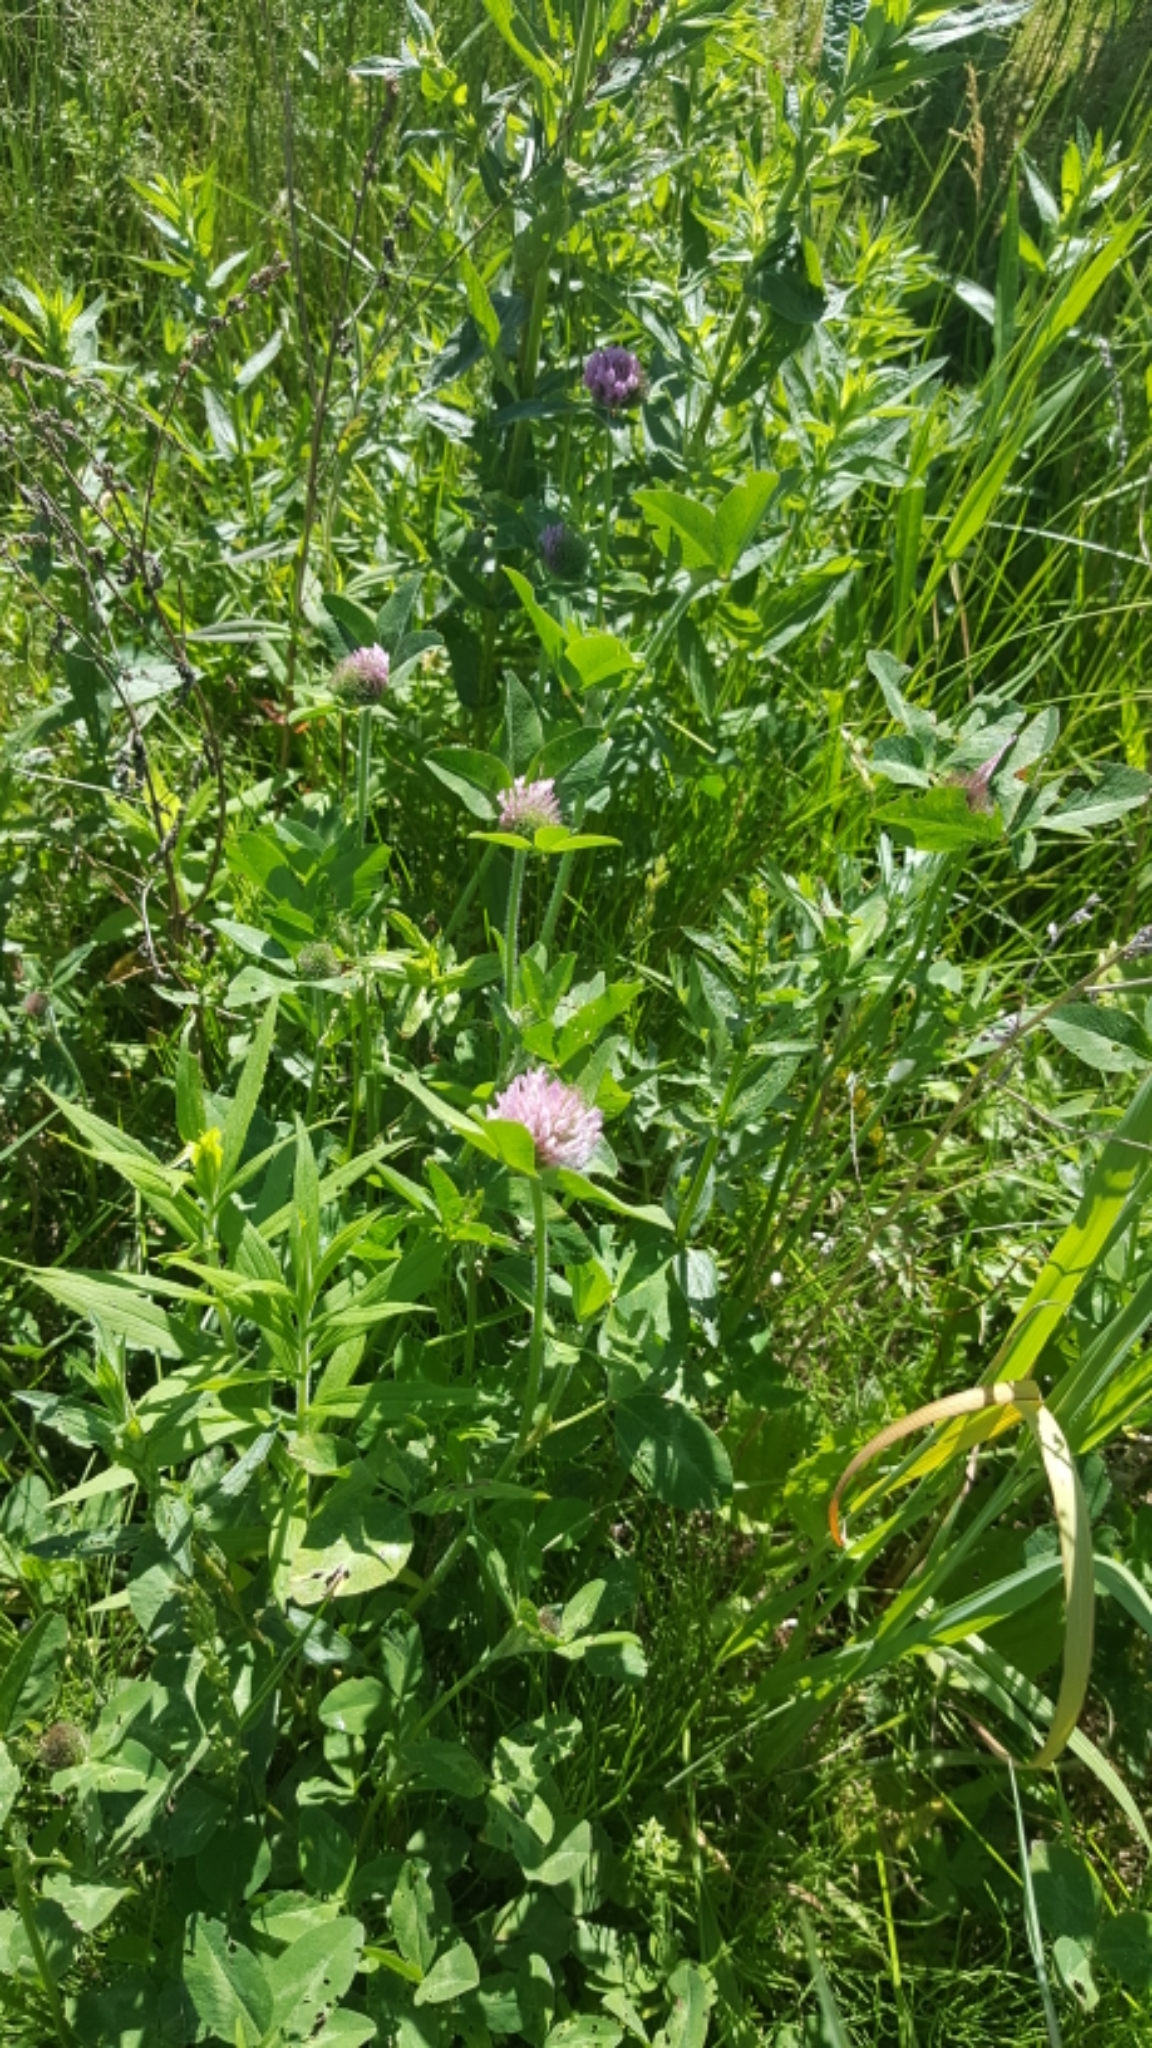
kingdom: Plantae
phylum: Tracheophyta
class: Magnoliopsida
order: Fabales
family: Fabaceae
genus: Trifolium
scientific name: Trifolium pratense
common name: Red clover
